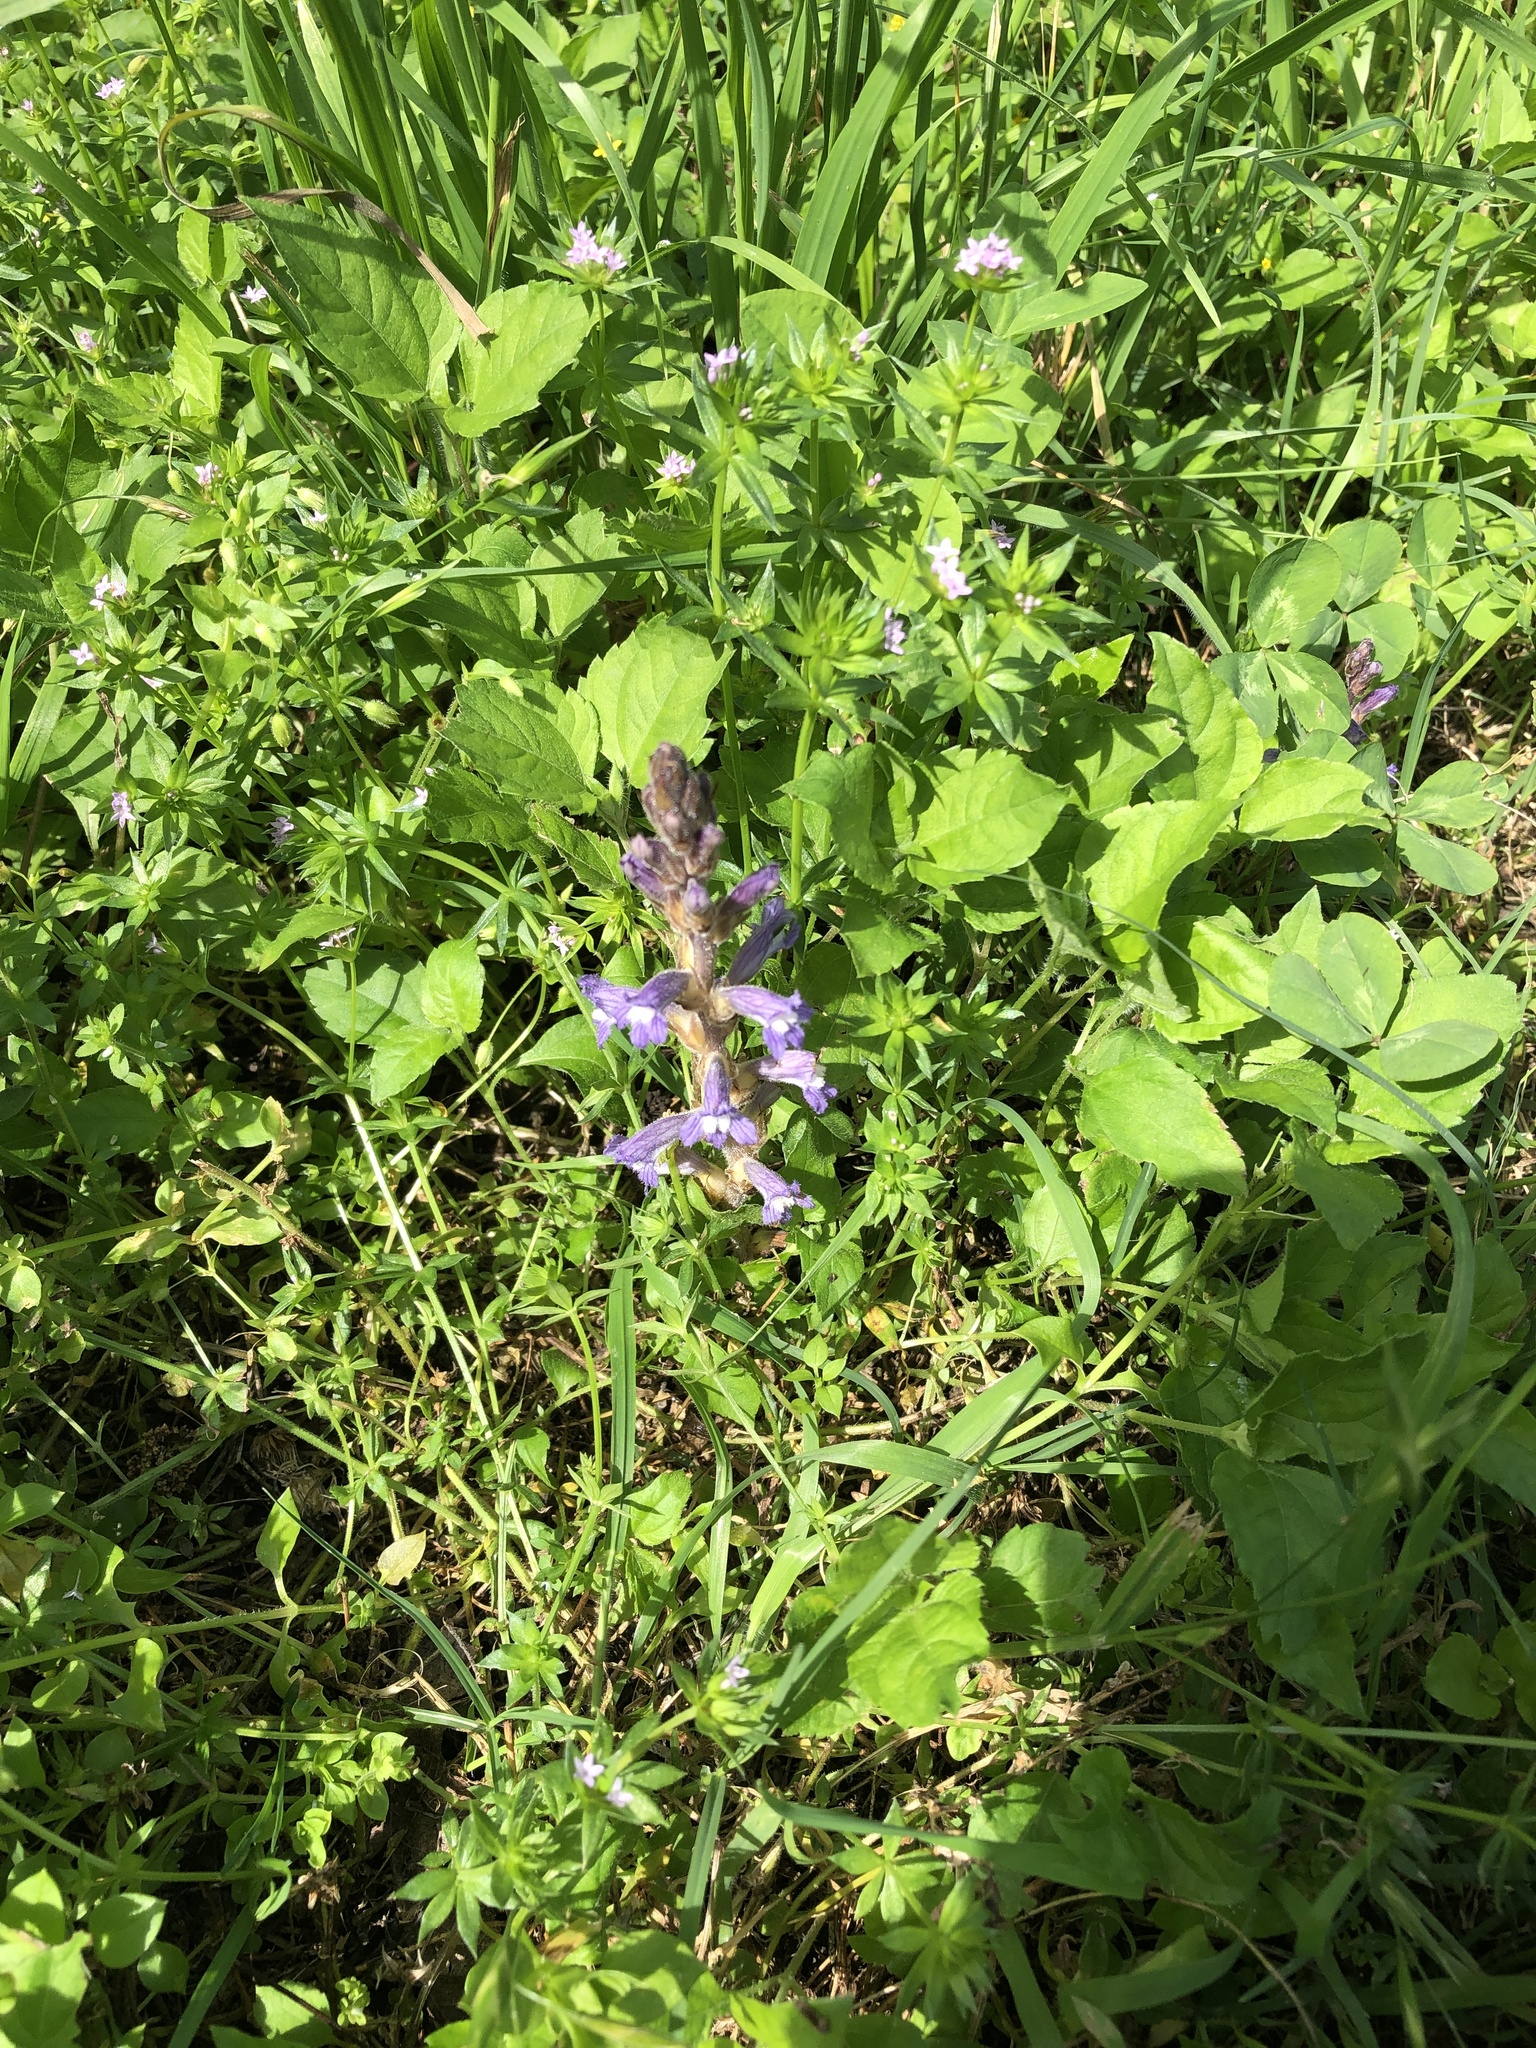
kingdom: Plantae
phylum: Tracheophyta
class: Magnoliopsida
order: Lamiales
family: Orobanchaceae
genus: Phelipanche
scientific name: Phelipanche mutelii
